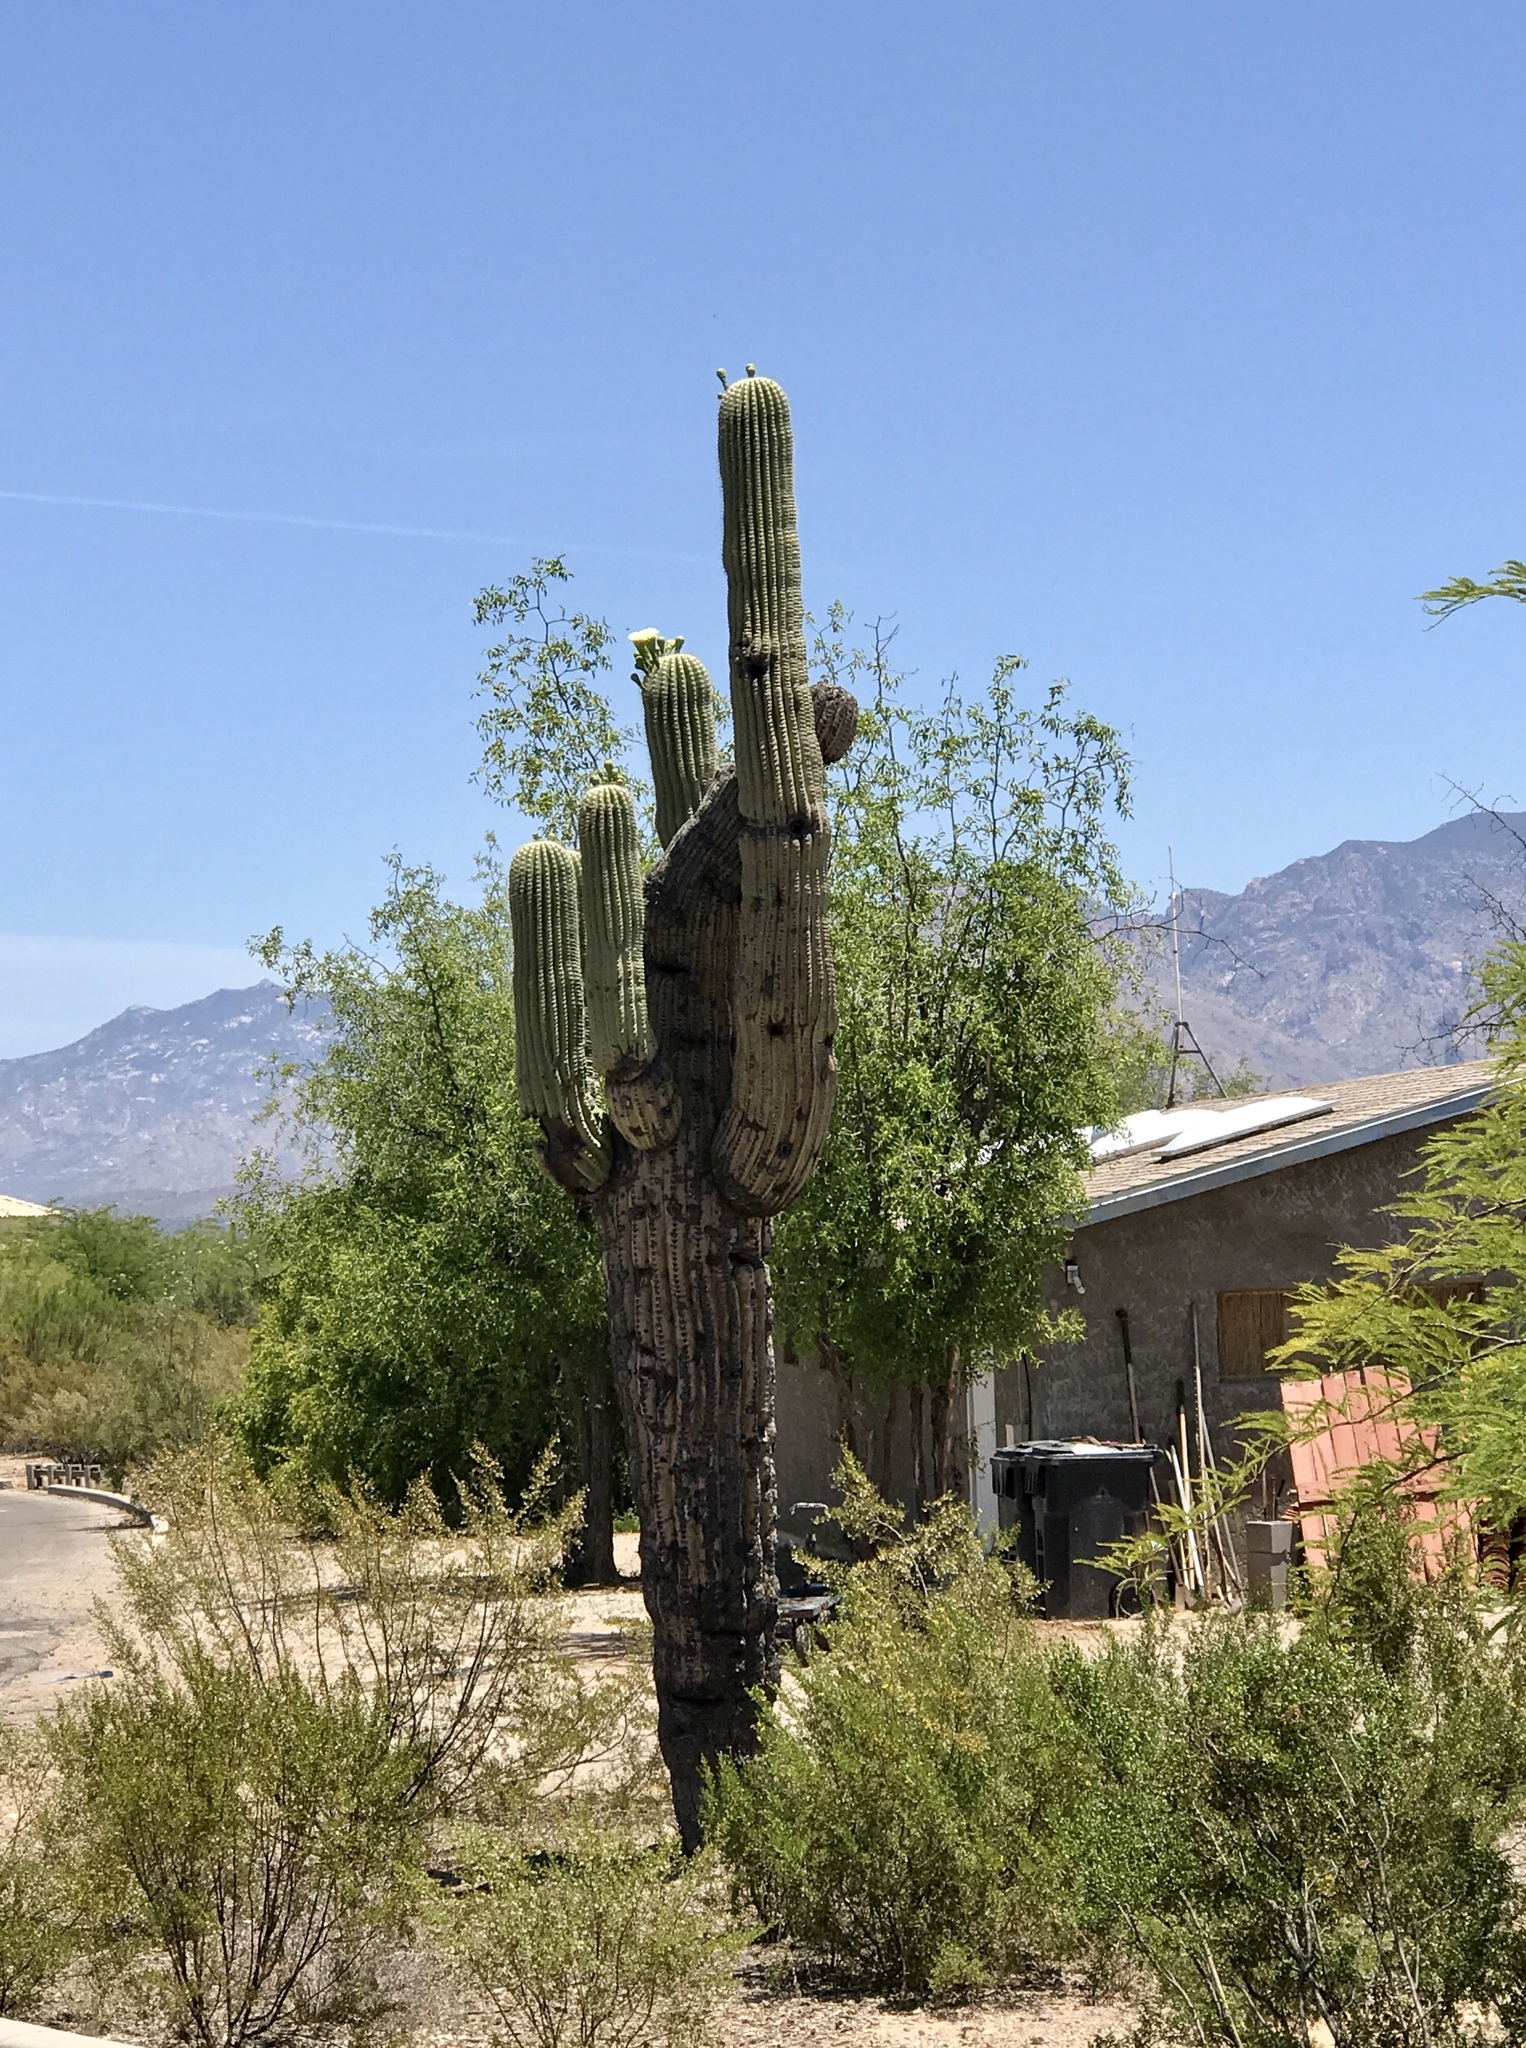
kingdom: Plantae
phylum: Tracheophyta
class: Magnoliopsida
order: Caryophyllales
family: Cactaceae
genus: Carnegiea
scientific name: Carnegiea gigantea
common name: Saguaro
